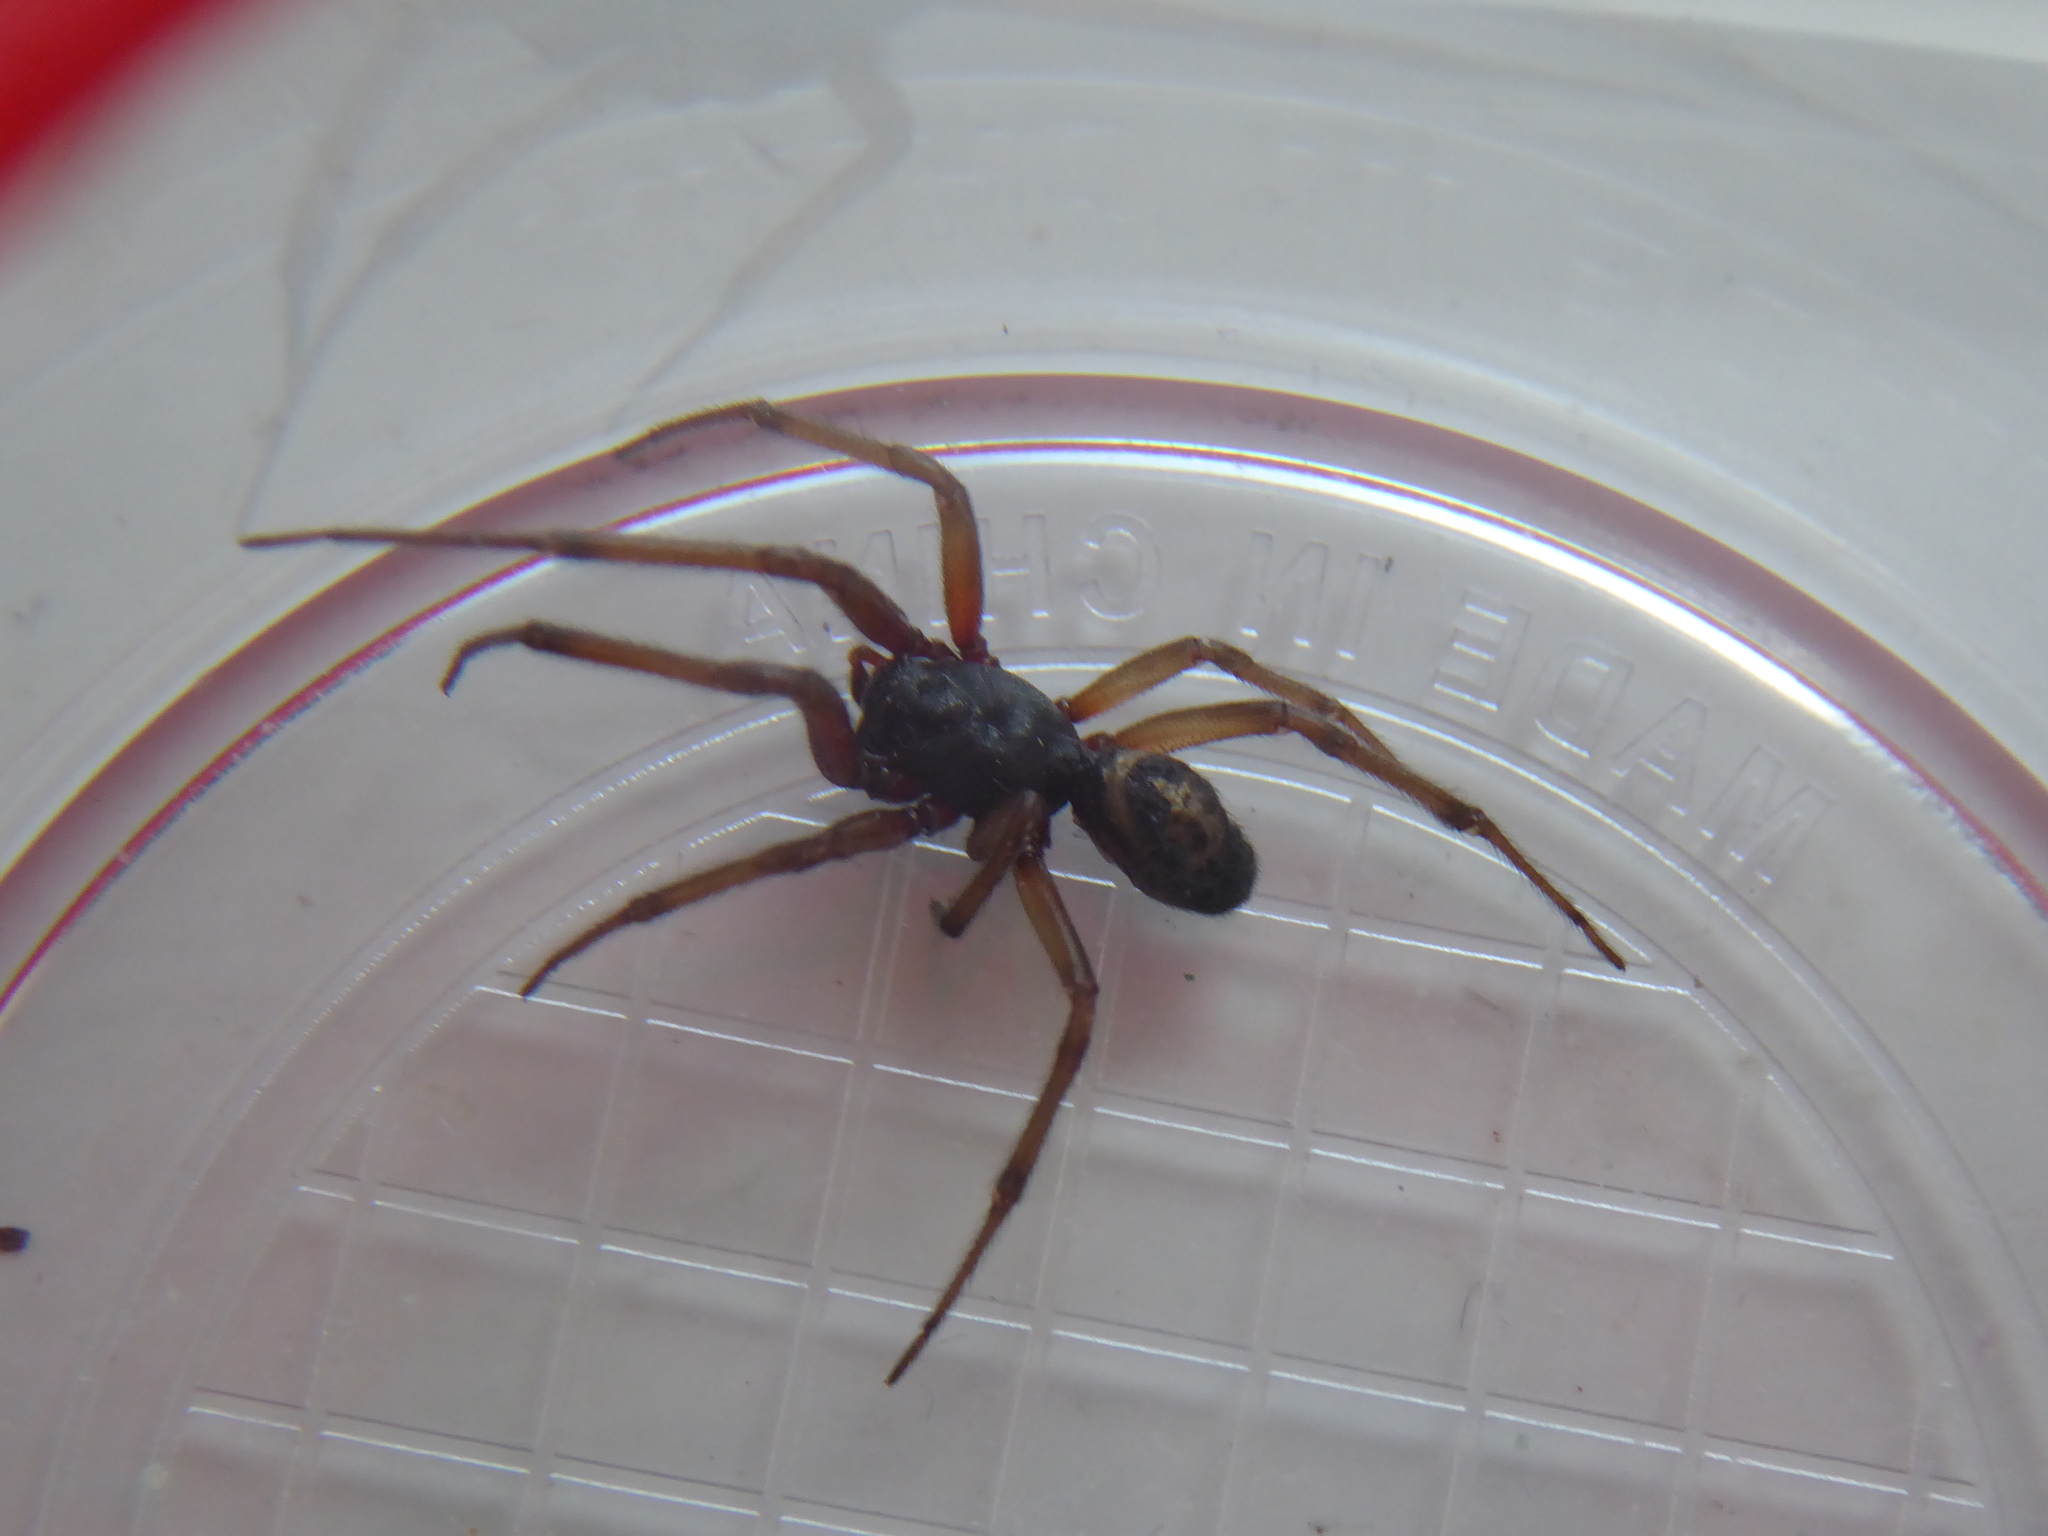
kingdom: Animalia
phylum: Arthropoda
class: Arachnida
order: Araneae
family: Theridiidae
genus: Steatoda
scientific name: Steatoda nobilis
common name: Cobweb weaver
